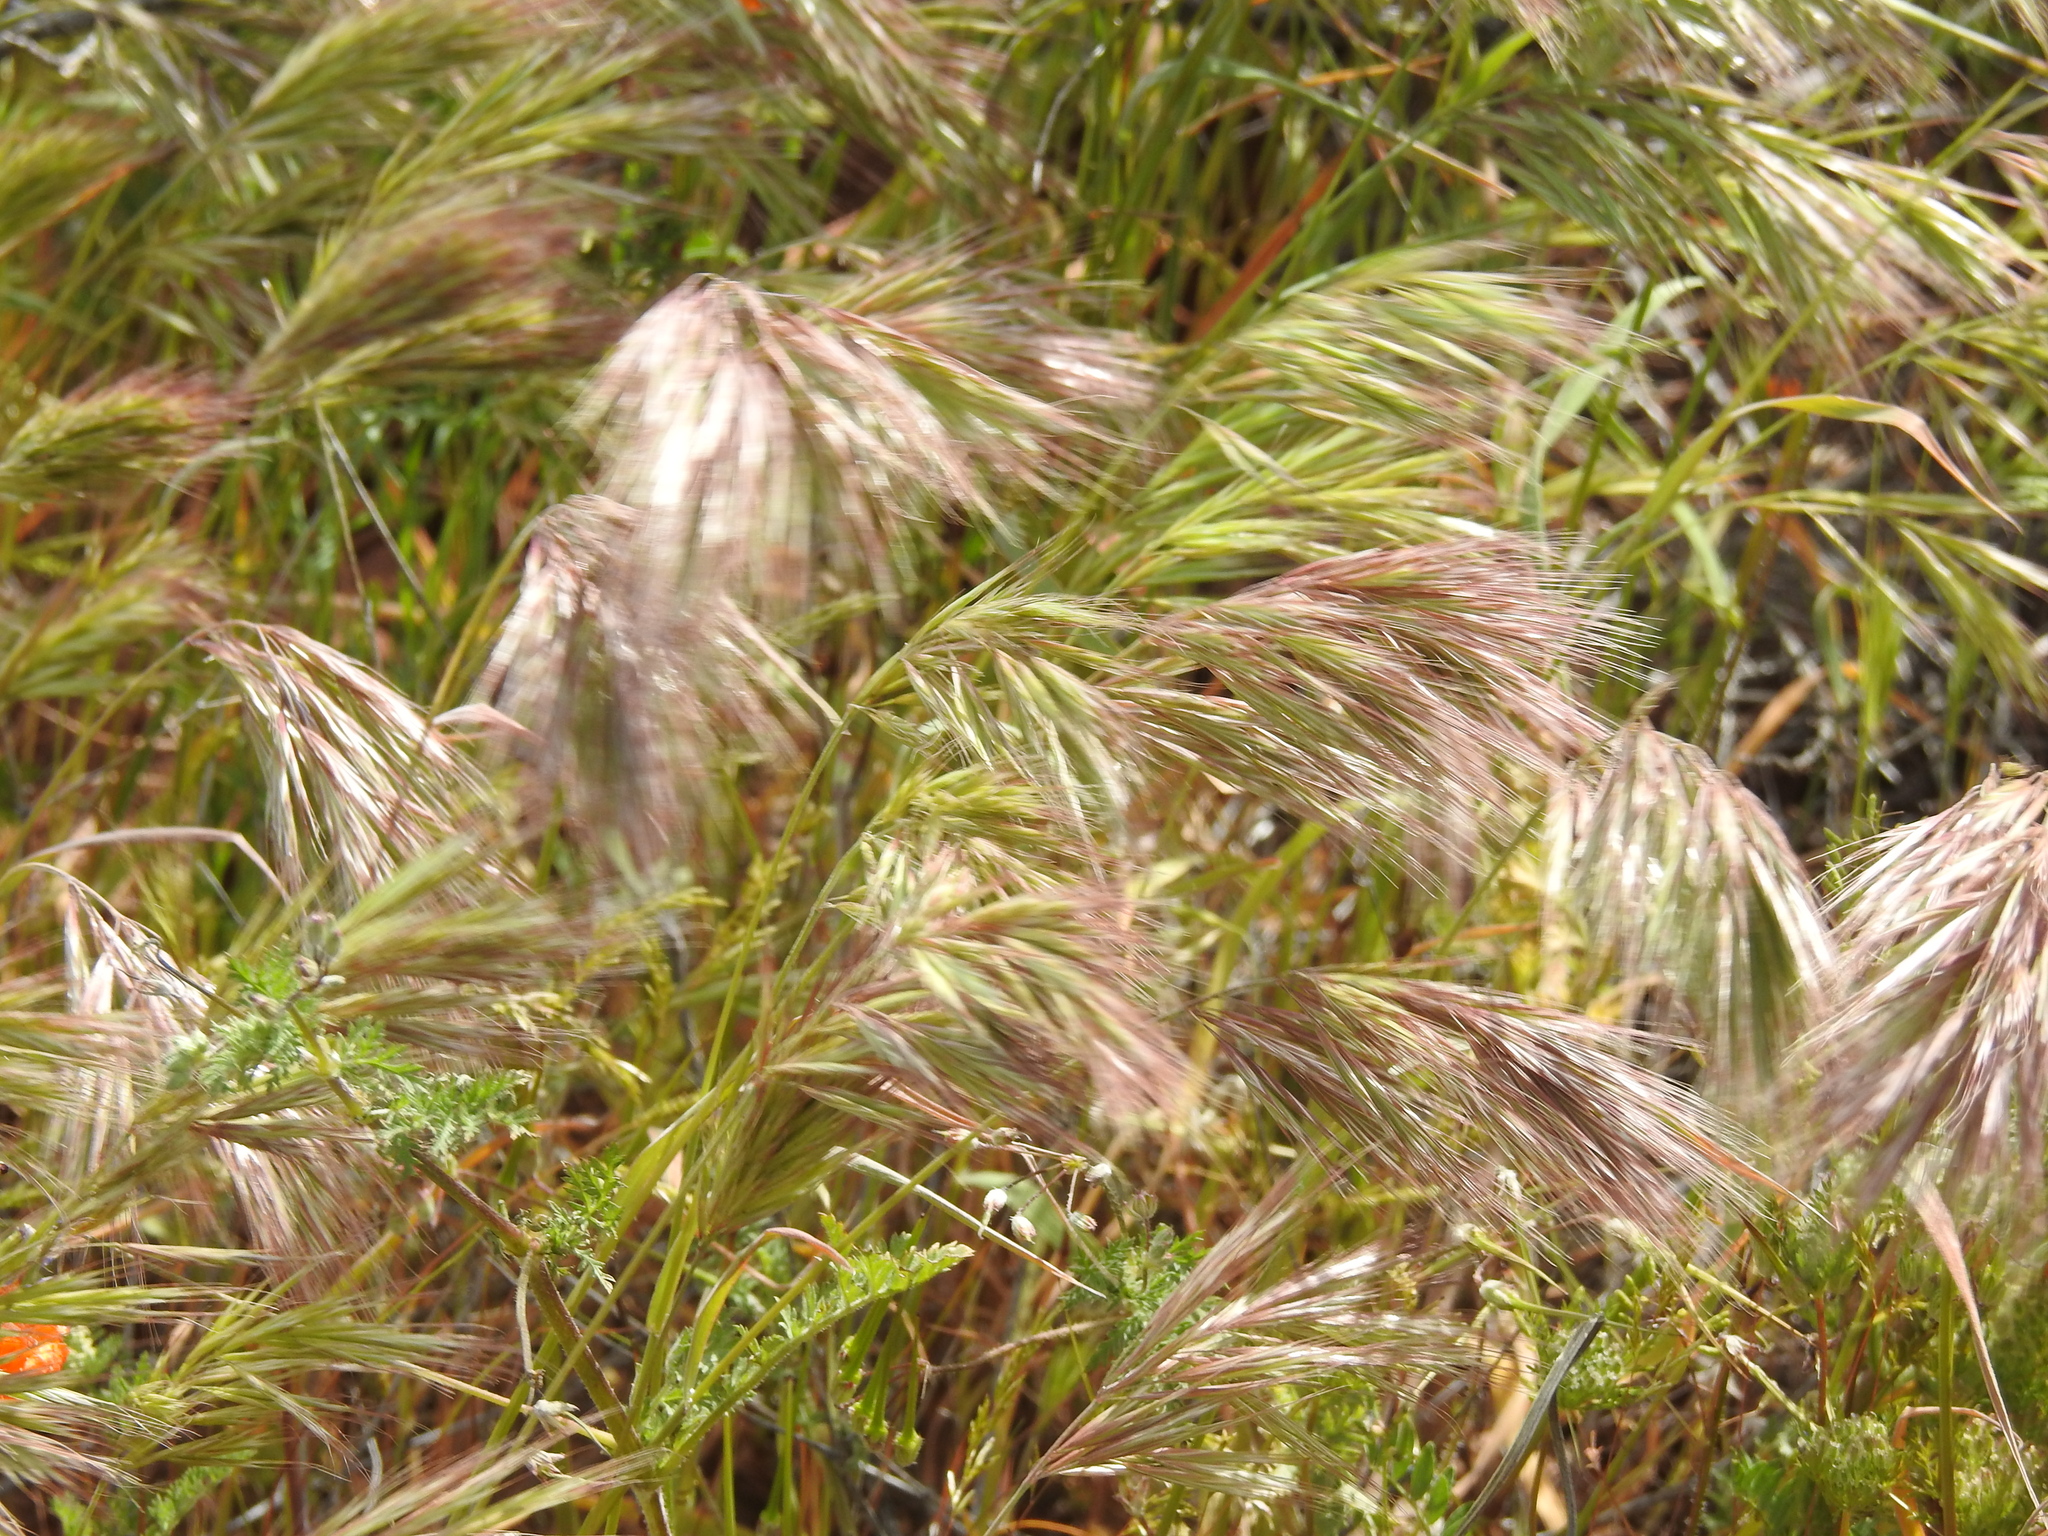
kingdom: Plantae
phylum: Tracheophyta
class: Liliopsida
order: Poales
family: Poaceae
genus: Bromus
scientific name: Bromus rubens
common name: Red brome
